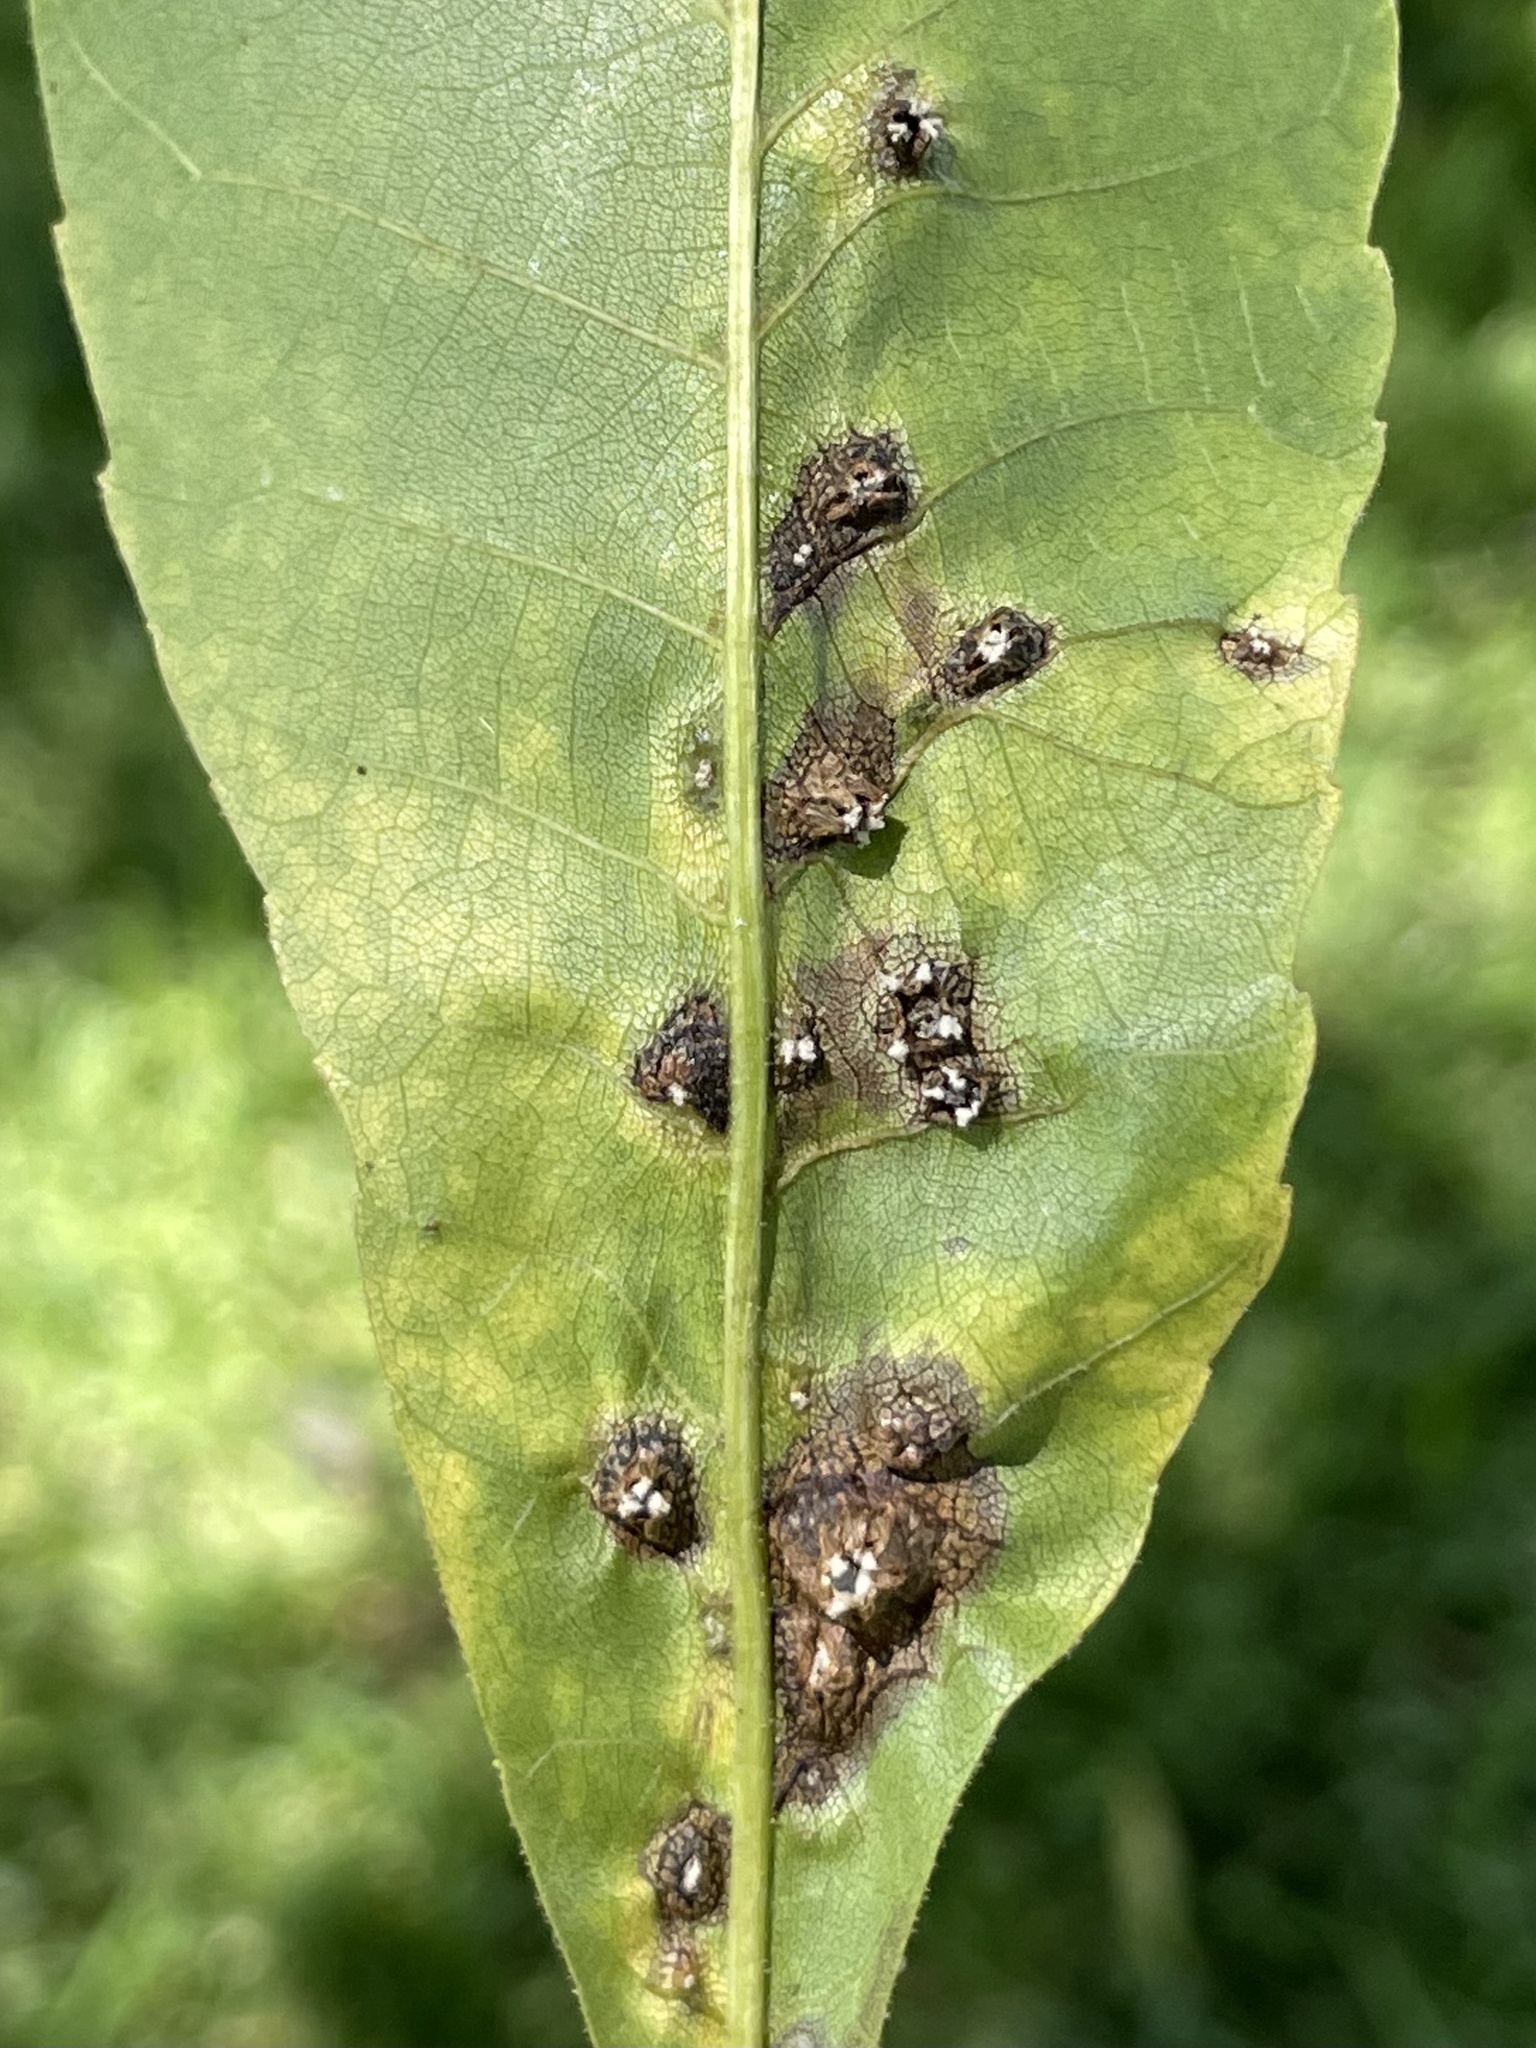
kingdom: Animalia
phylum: Arthropoda
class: Insecta
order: Hemiptera
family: Phylloxeridae
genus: Daktulosphaira
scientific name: Daktulosphaira notabilis
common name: Pecan leaf phylloxera
